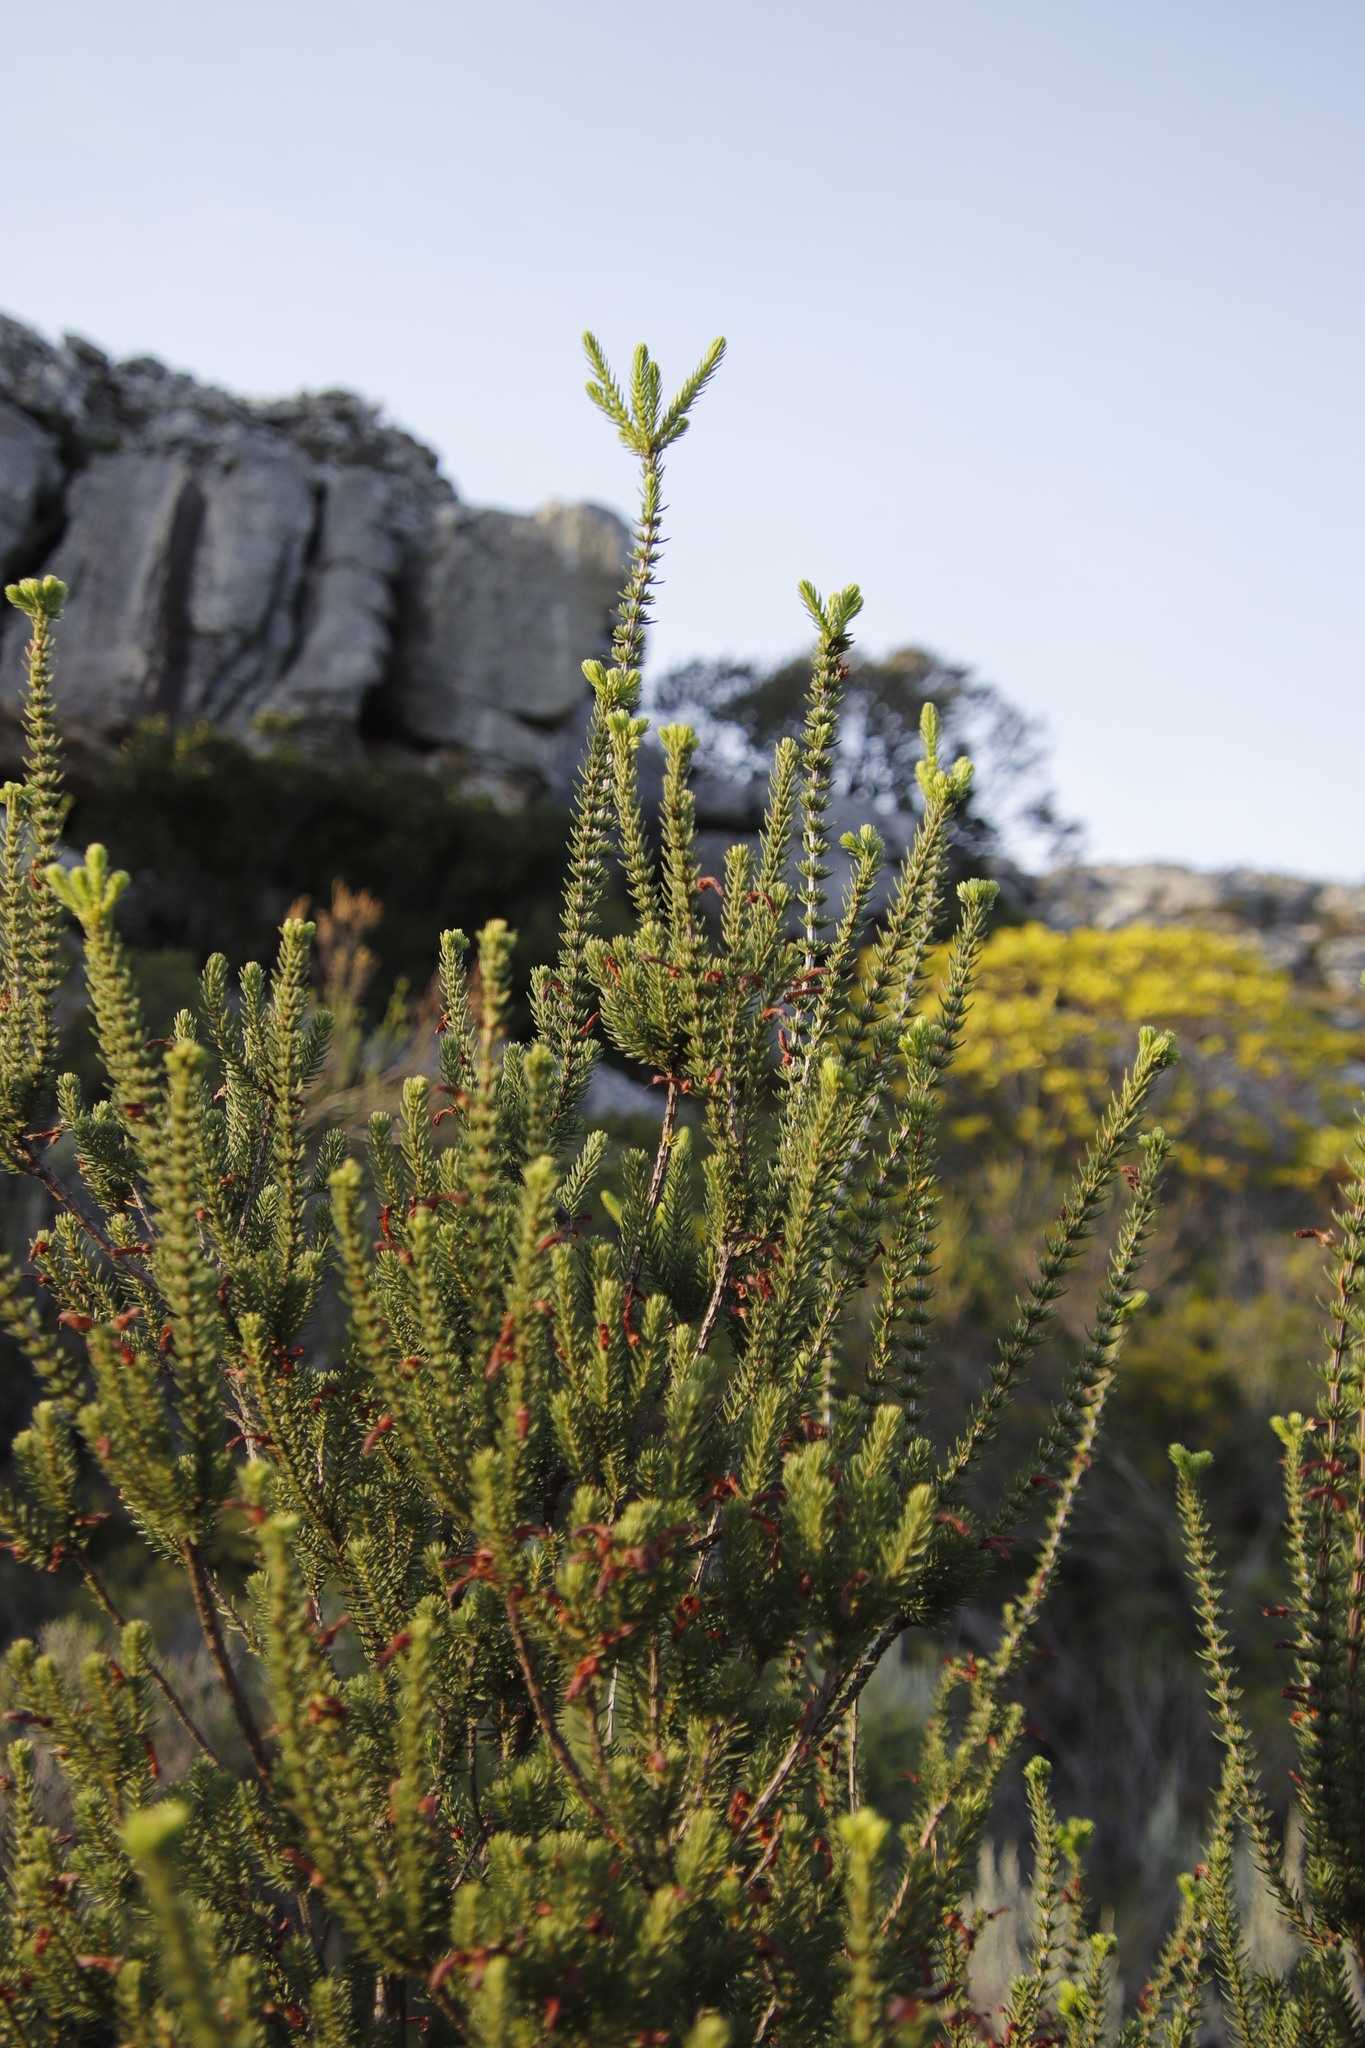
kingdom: Plantae
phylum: Tracheophyta
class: Magnoliopsida
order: Ericales
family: Ericaceae
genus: Erica
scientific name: Erica mammosa
